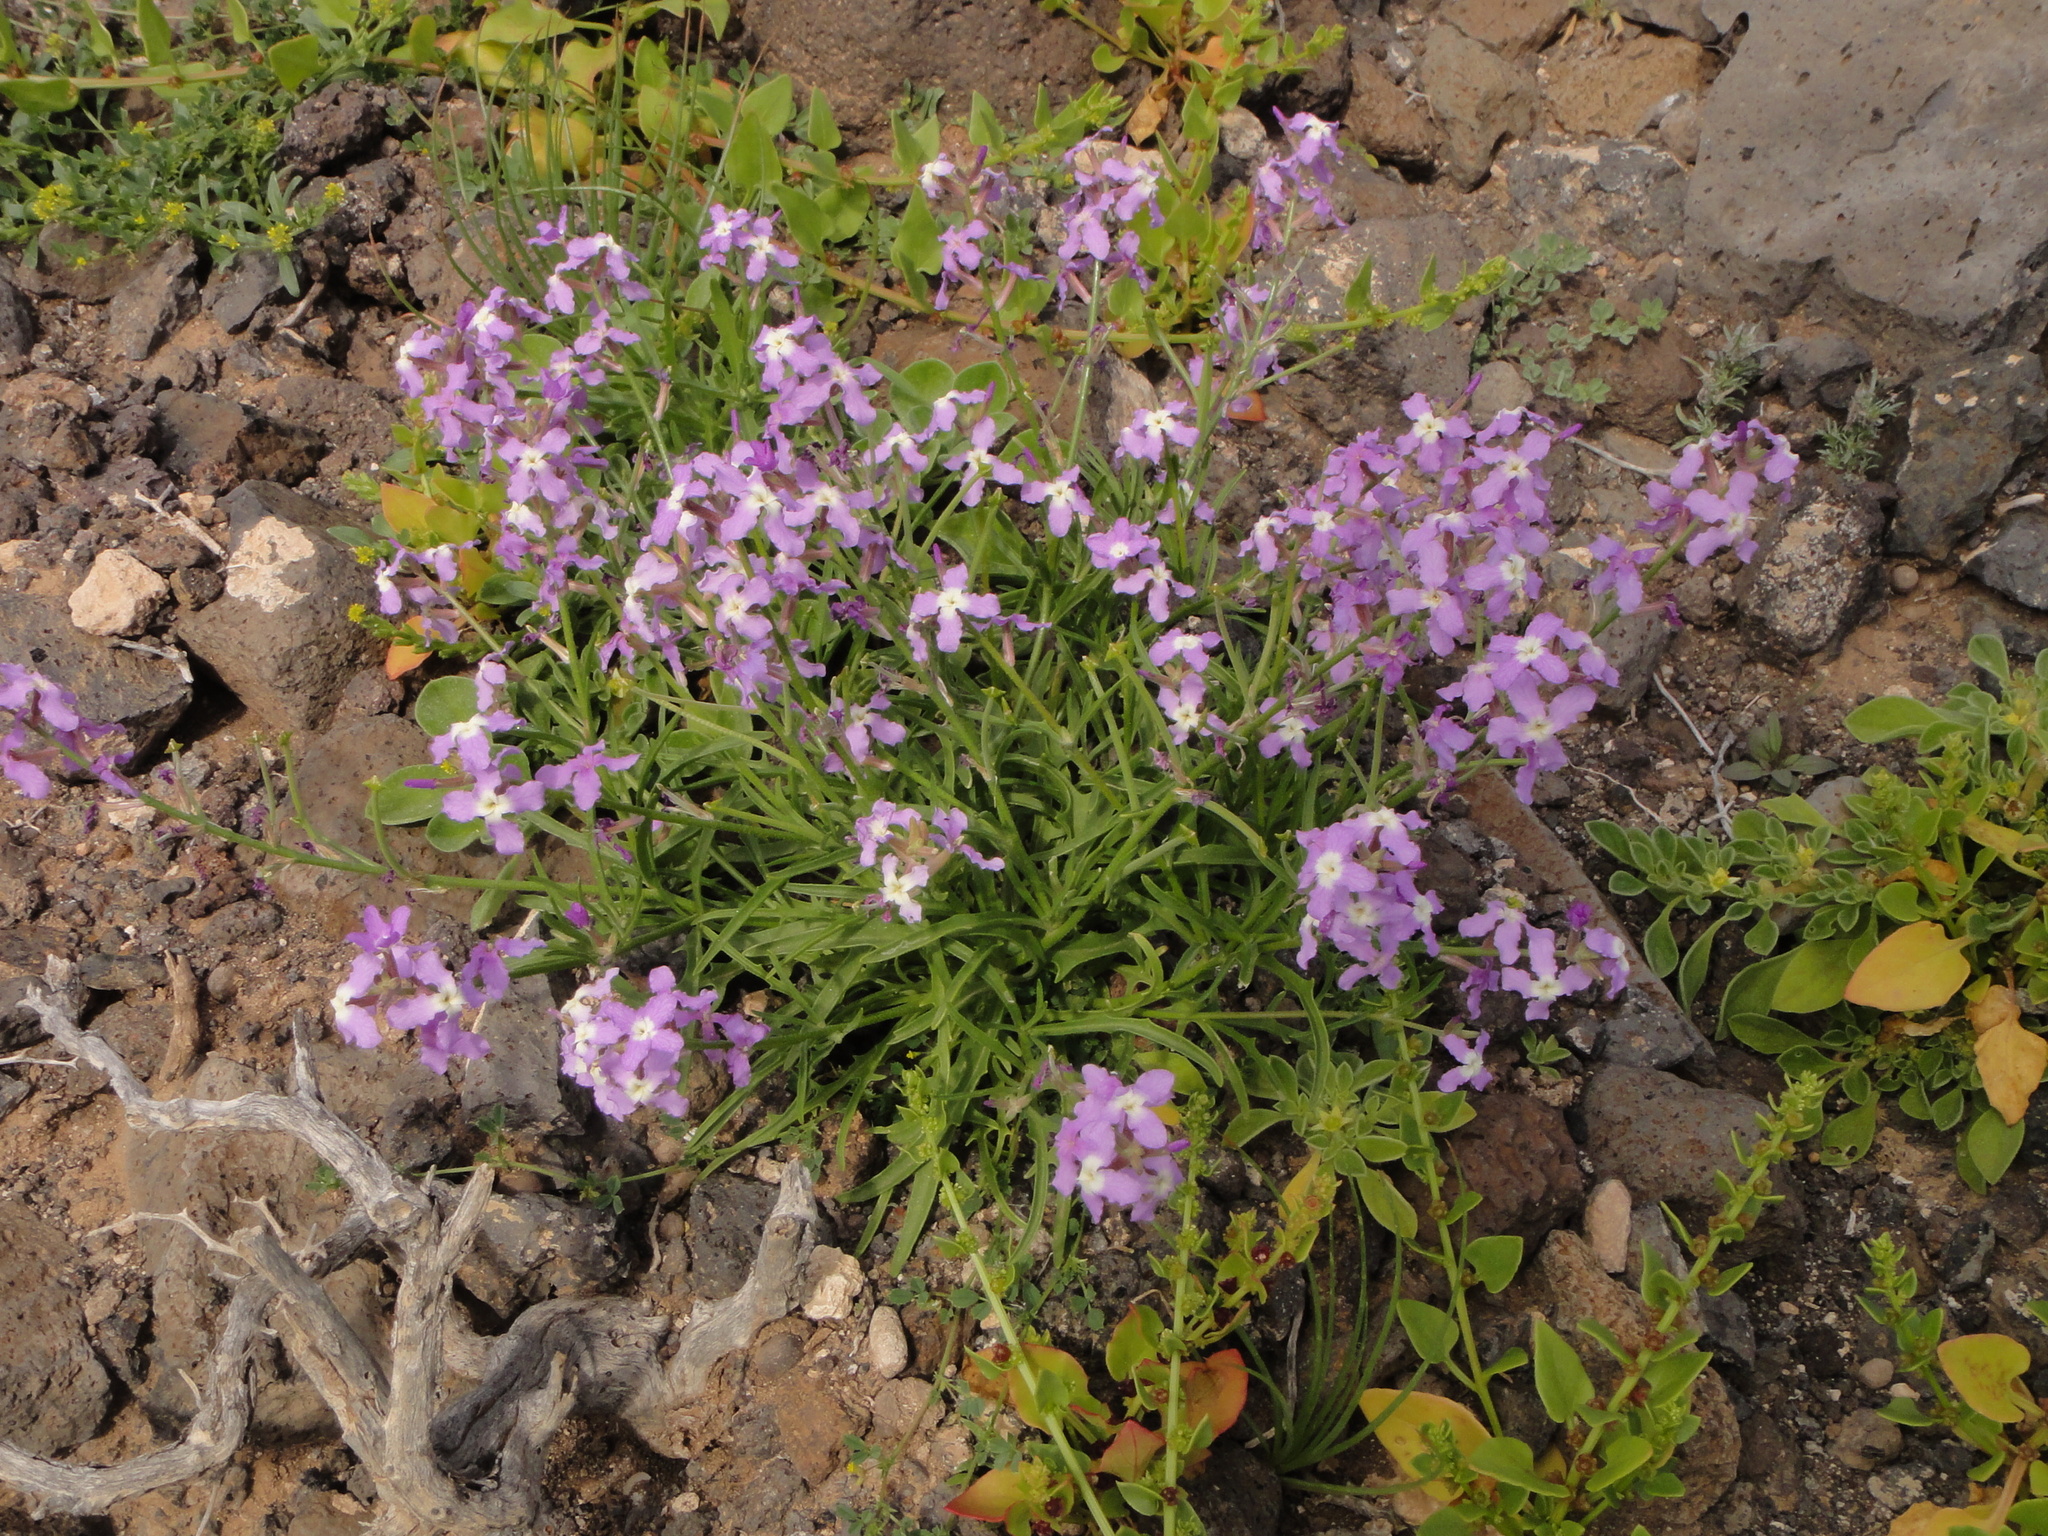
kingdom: Plantae
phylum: Tracheophyta
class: Magnoliopsida
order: Brassicales
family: Brassicaceae
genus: Matthiola
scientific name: Matthiola bolleana
